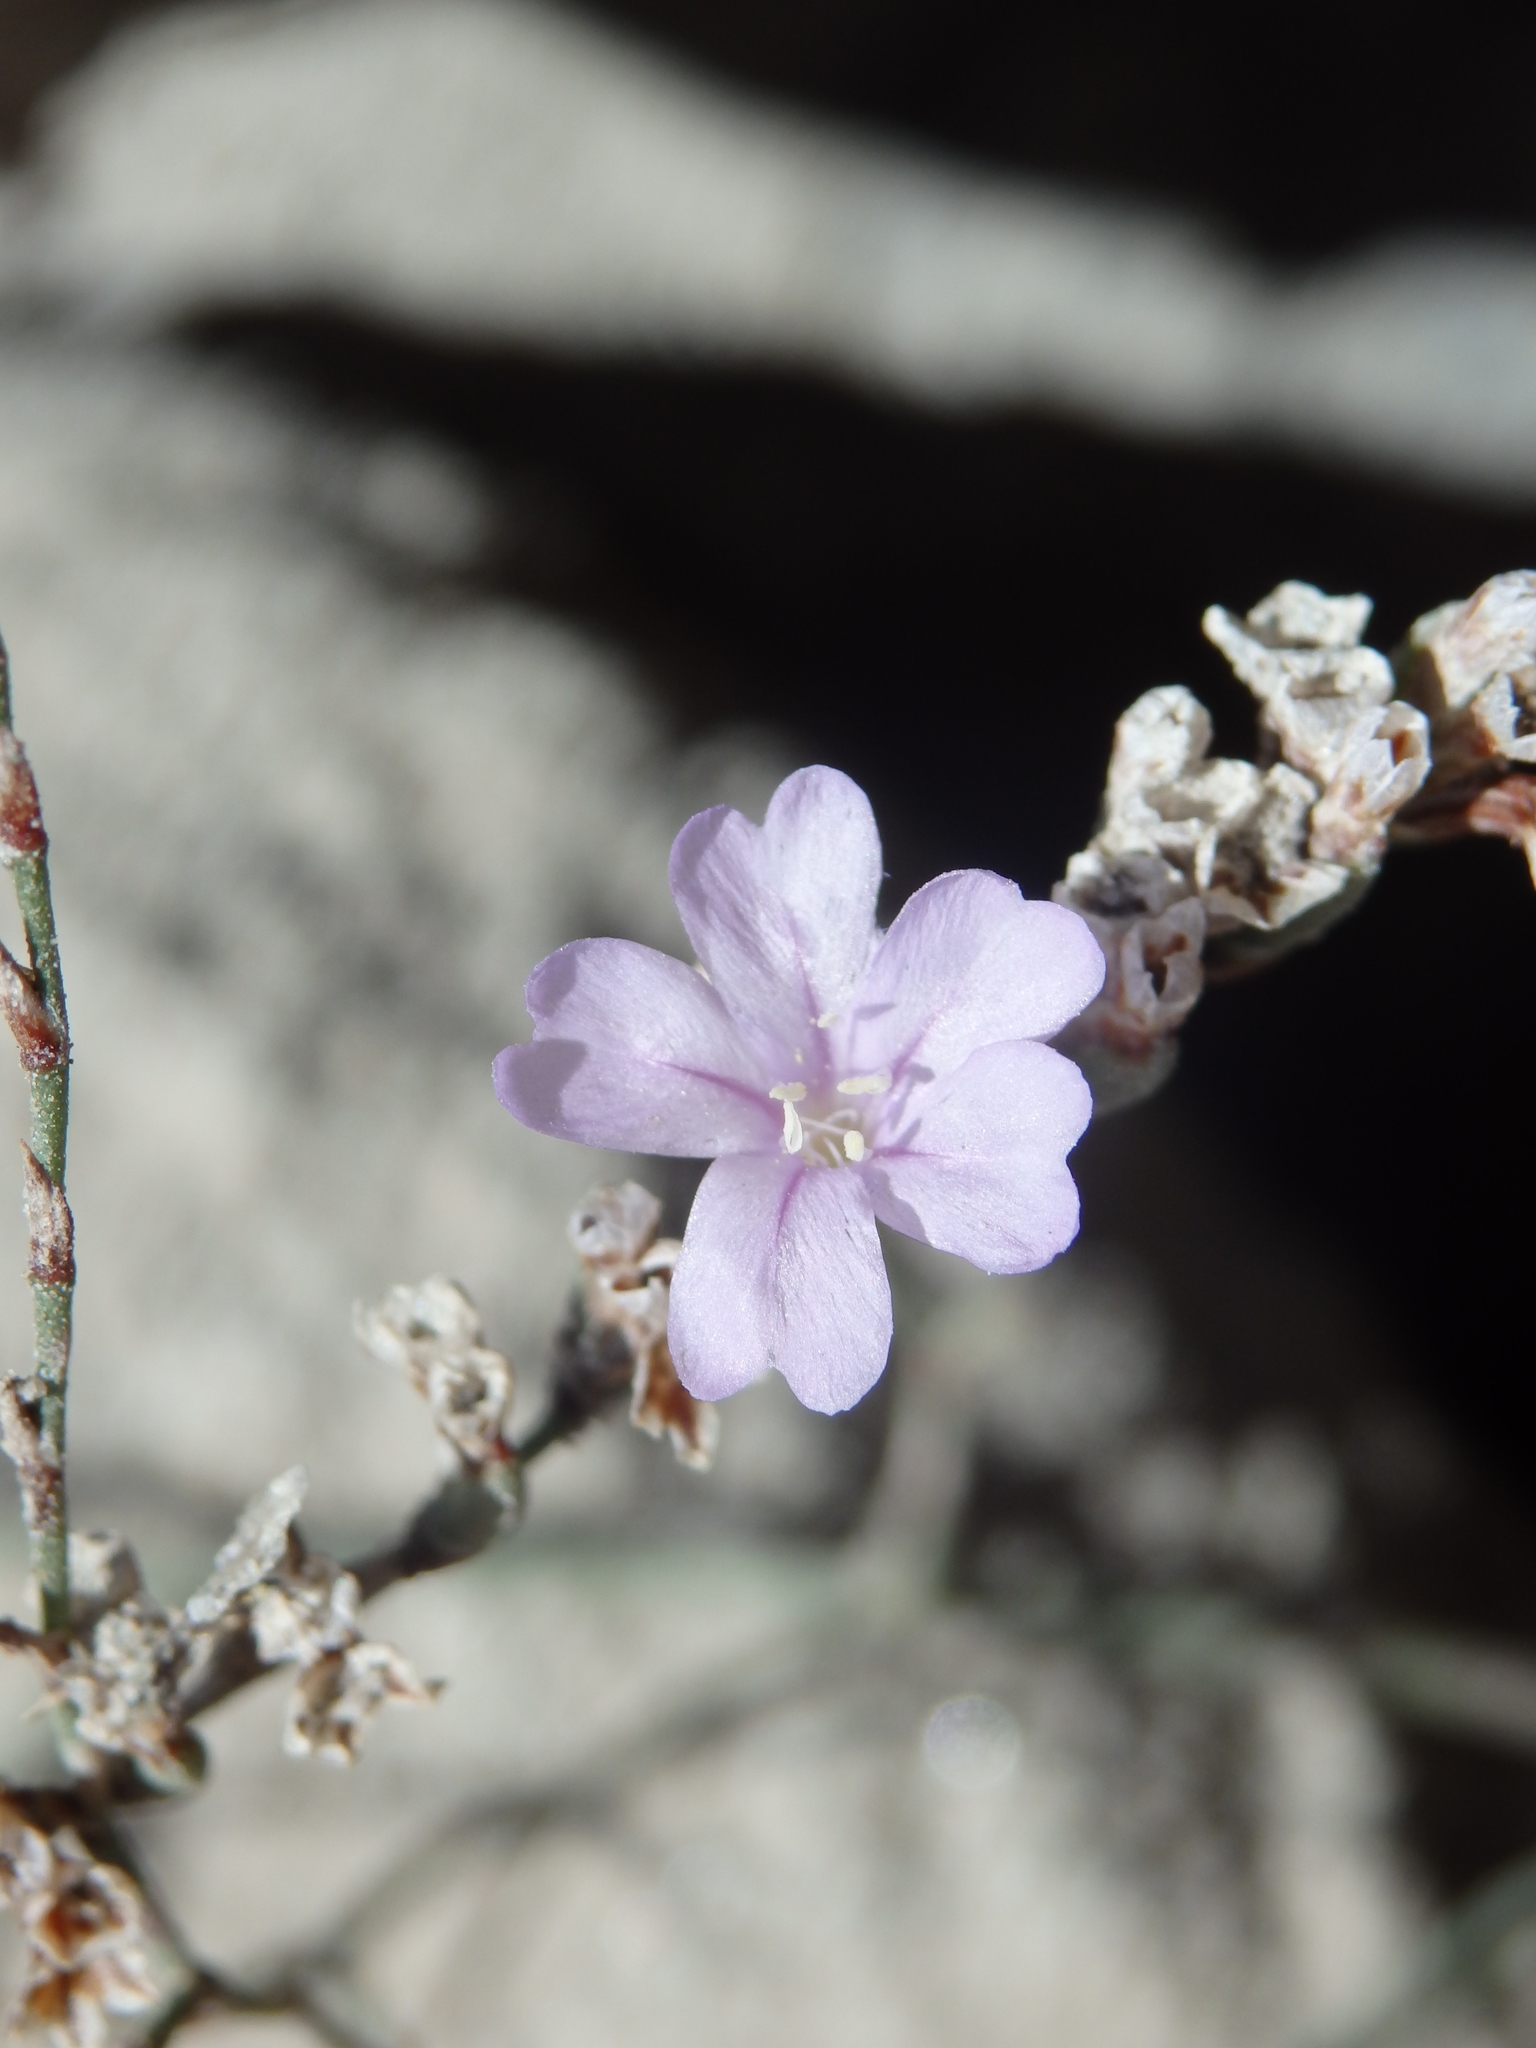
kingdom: Plantae
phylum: Tracheophyta
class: Magnoliopsida
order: Caryophyllales
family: Plumbaginaceae
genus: Limonium
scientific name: Limonium virgatum
